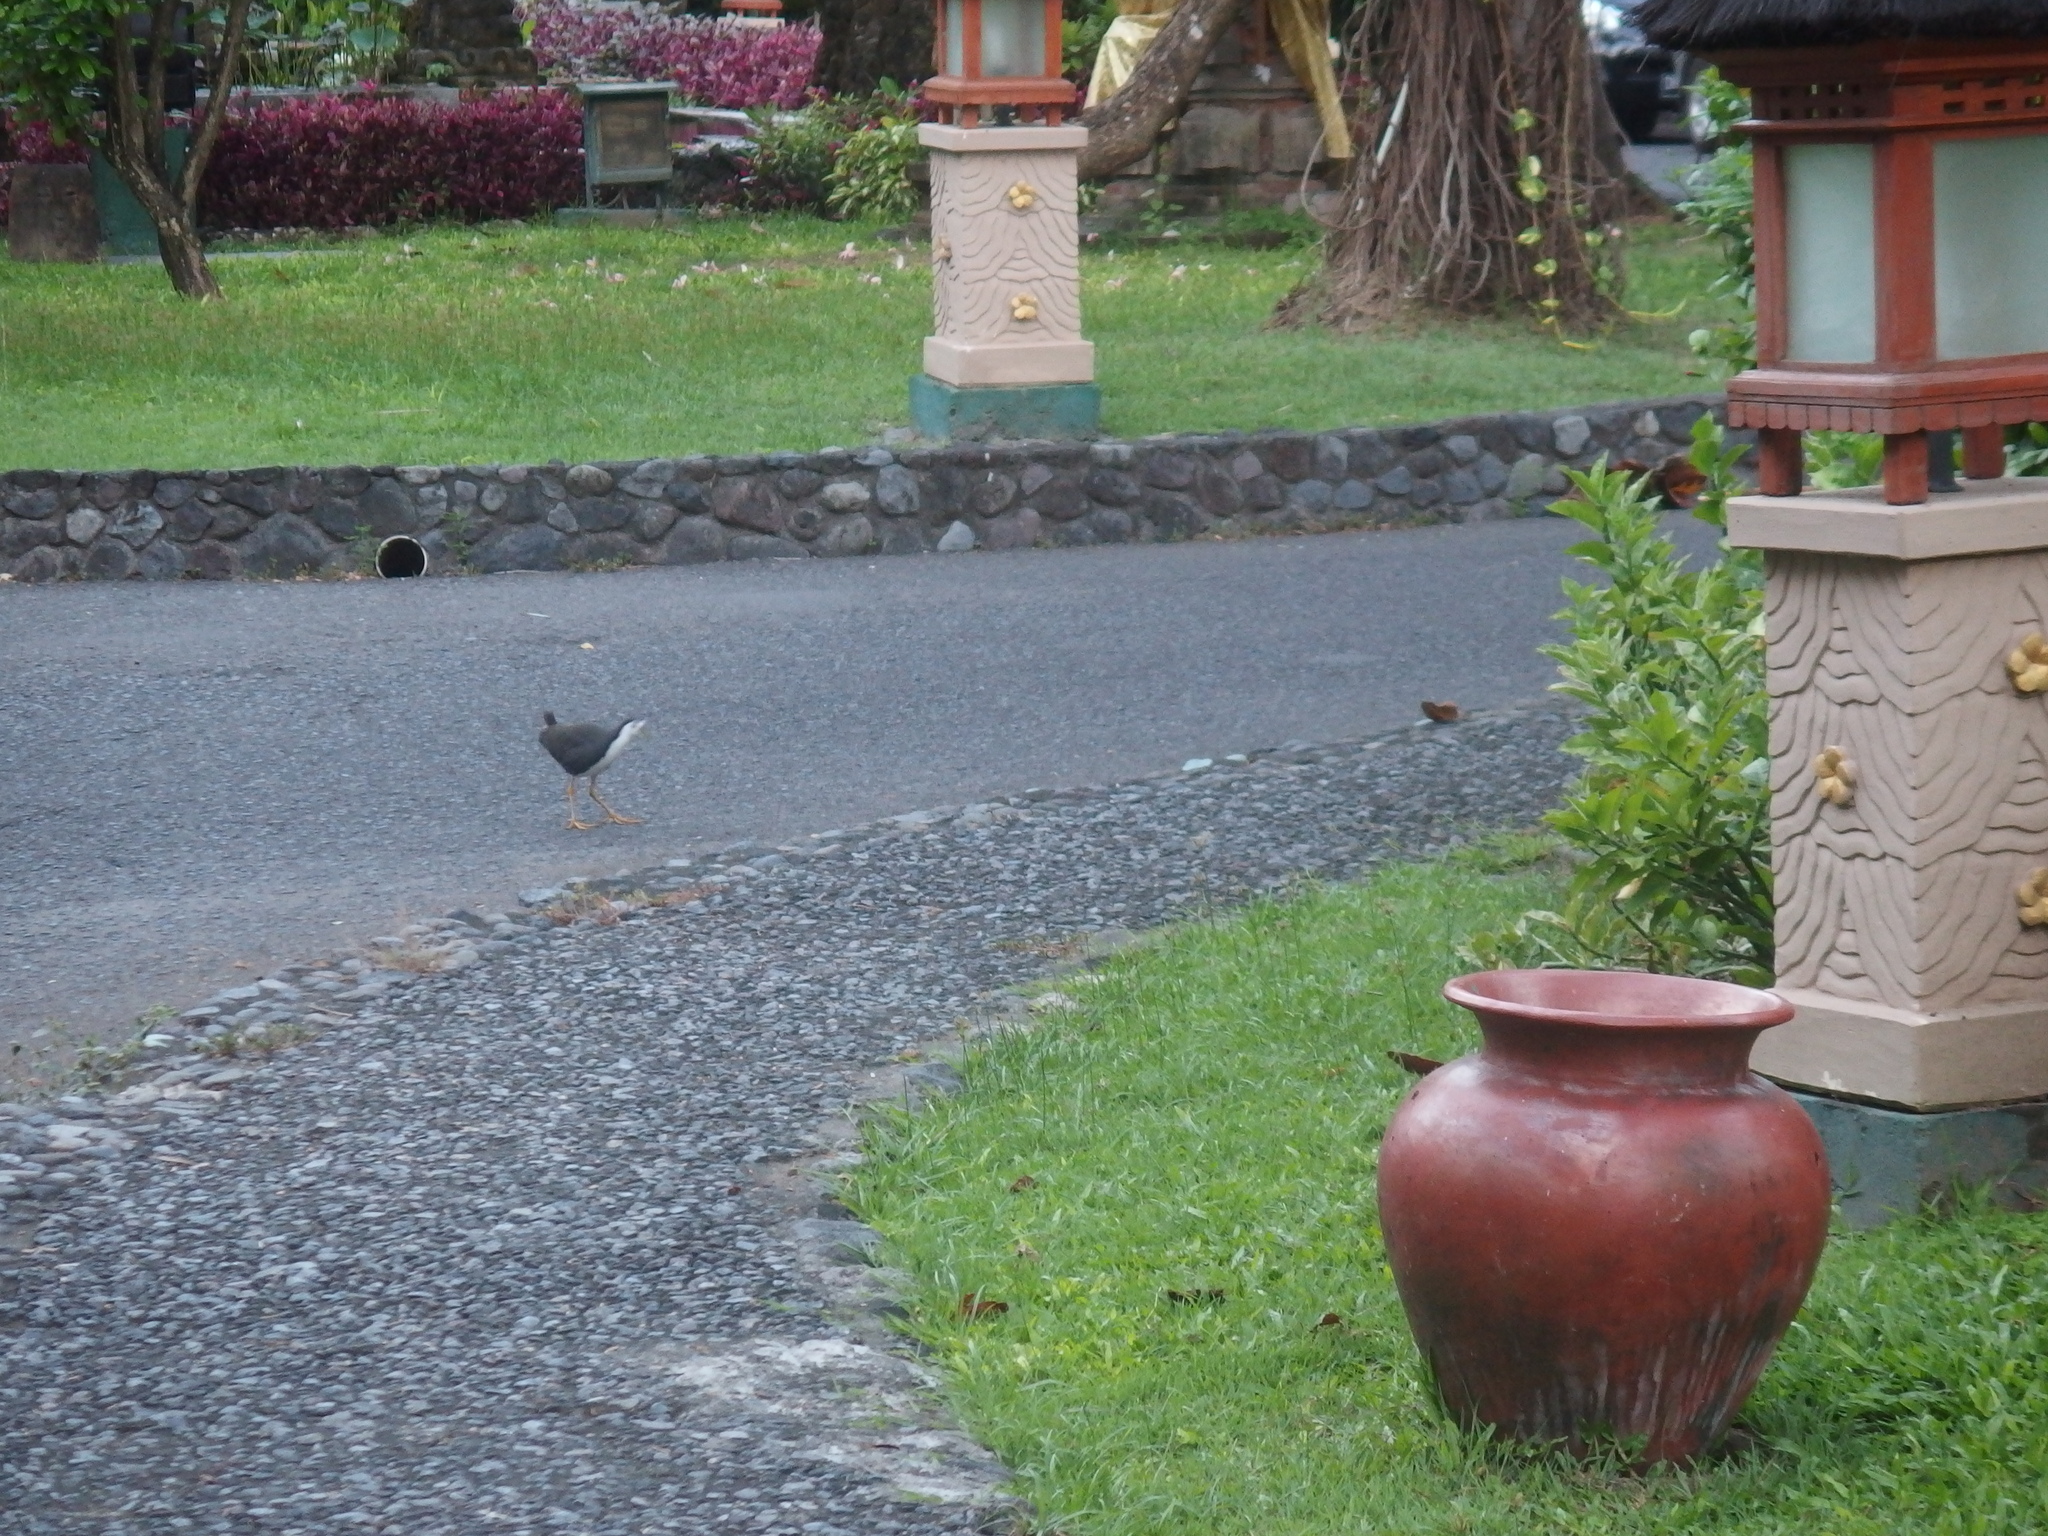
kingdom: Animalia
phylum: Chordata
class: Aves
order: Gruiformes
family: Rallidae
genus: Amaurornis
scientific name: Amaurornis phoenicurus
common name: White-breasted waterhen
